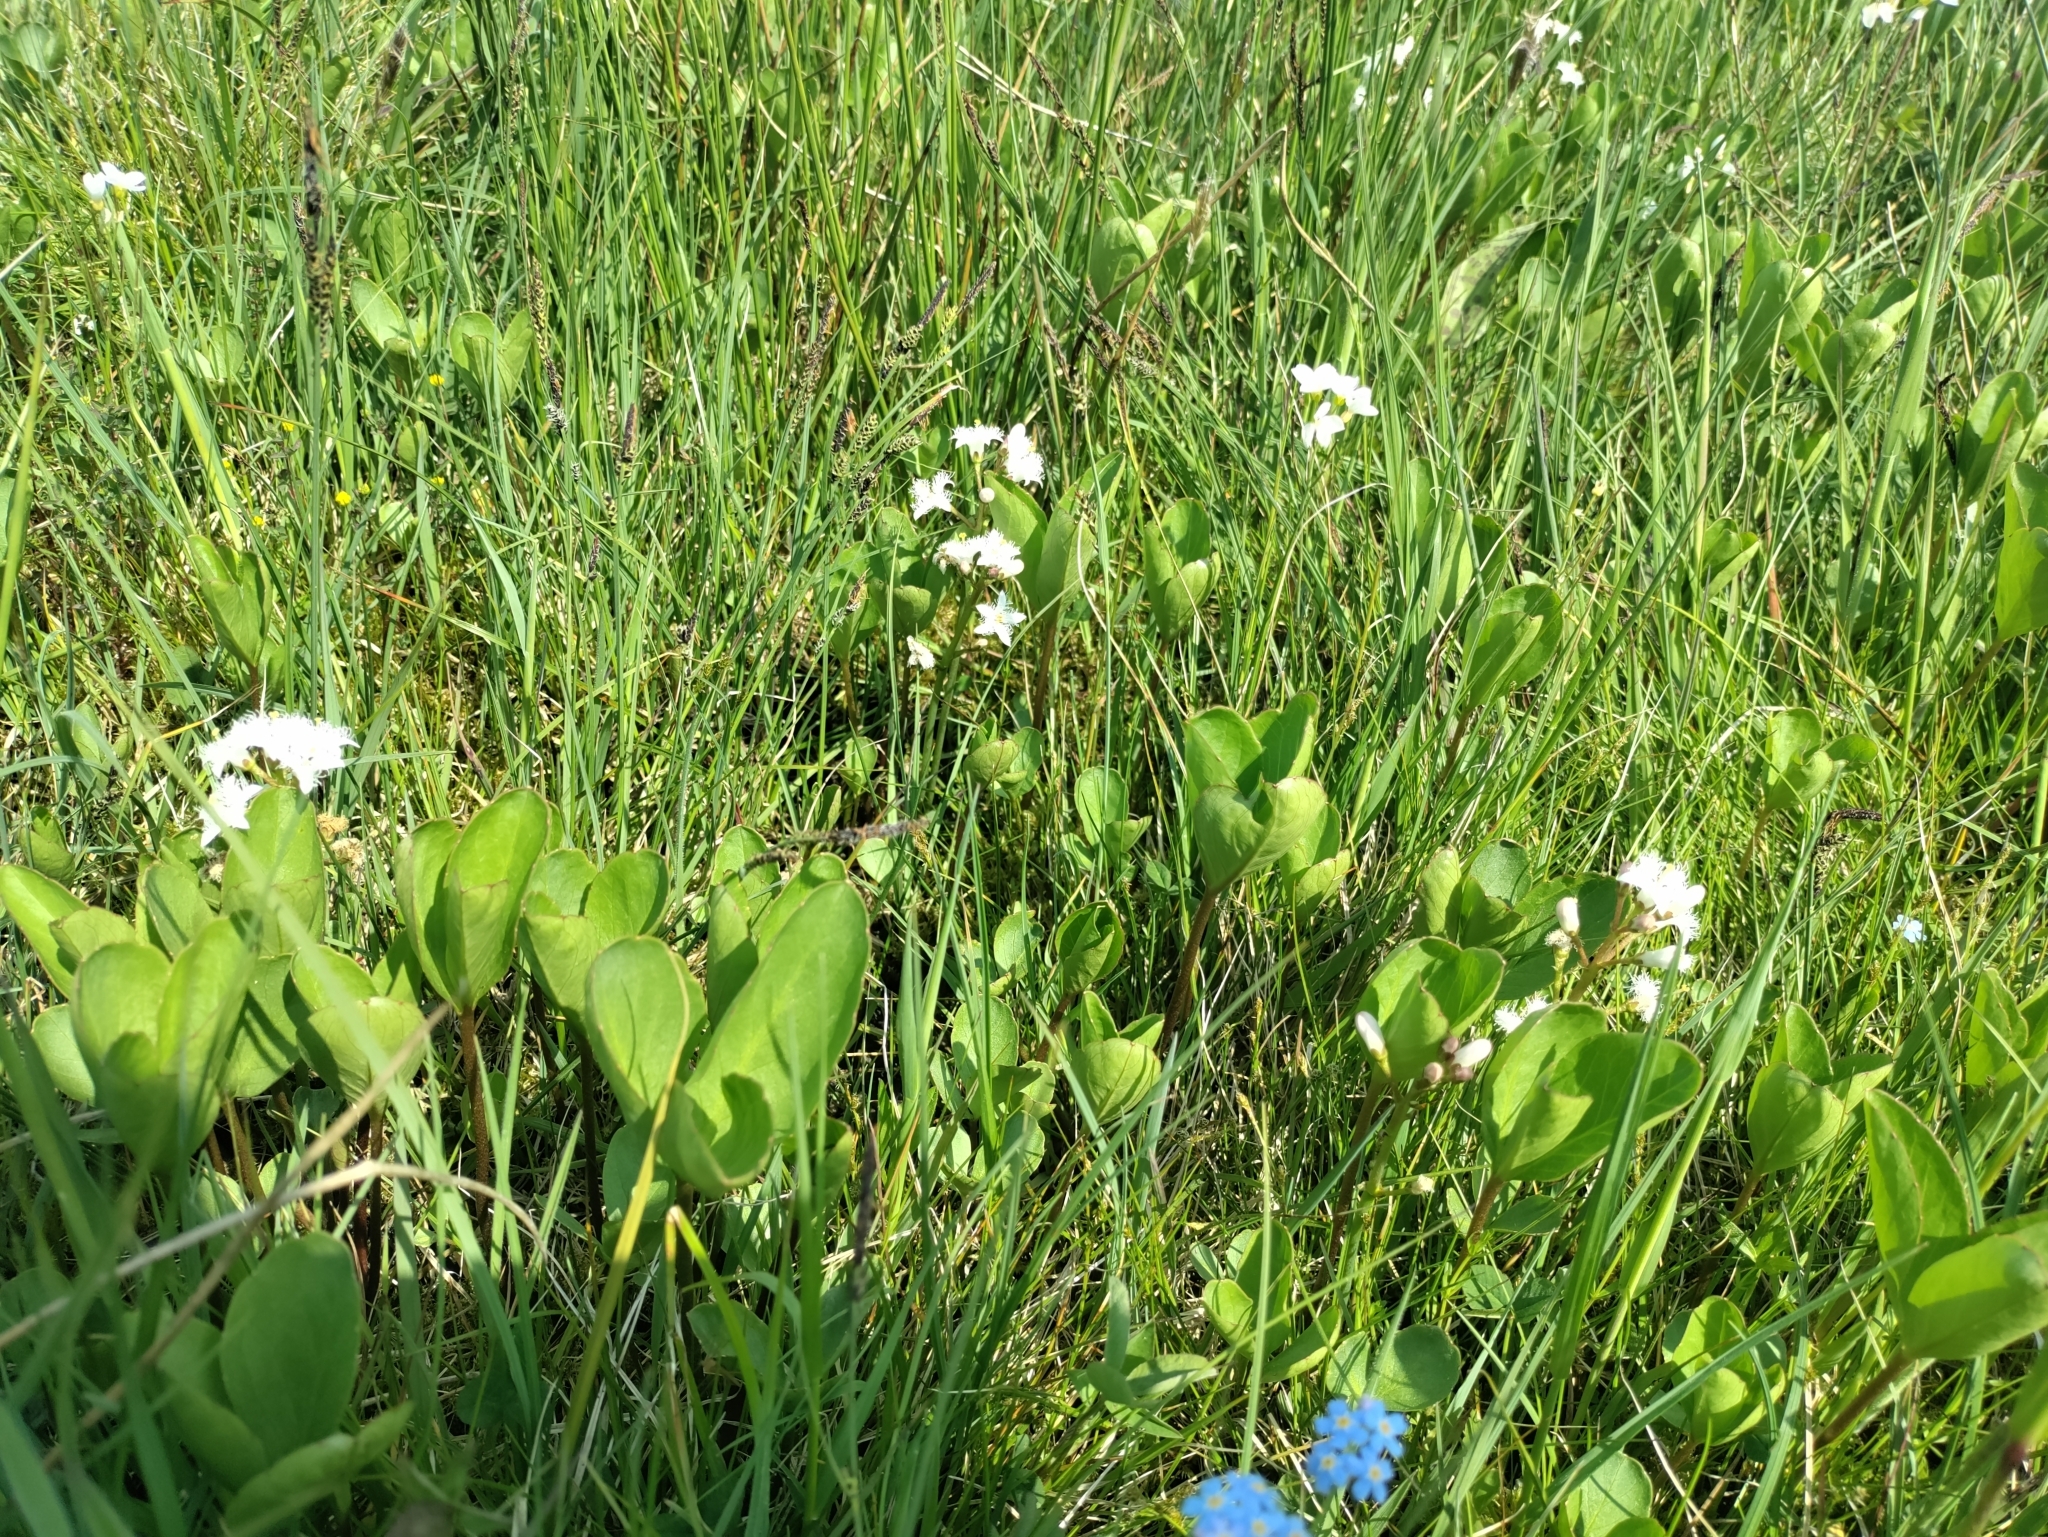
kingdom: Plantae
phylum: Tracheophyta
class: Magnoliopsida
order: Asterales
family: Menyanthaceae
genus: Menyanthes
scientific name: Menyanthes trifoliata
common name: Bogbean
